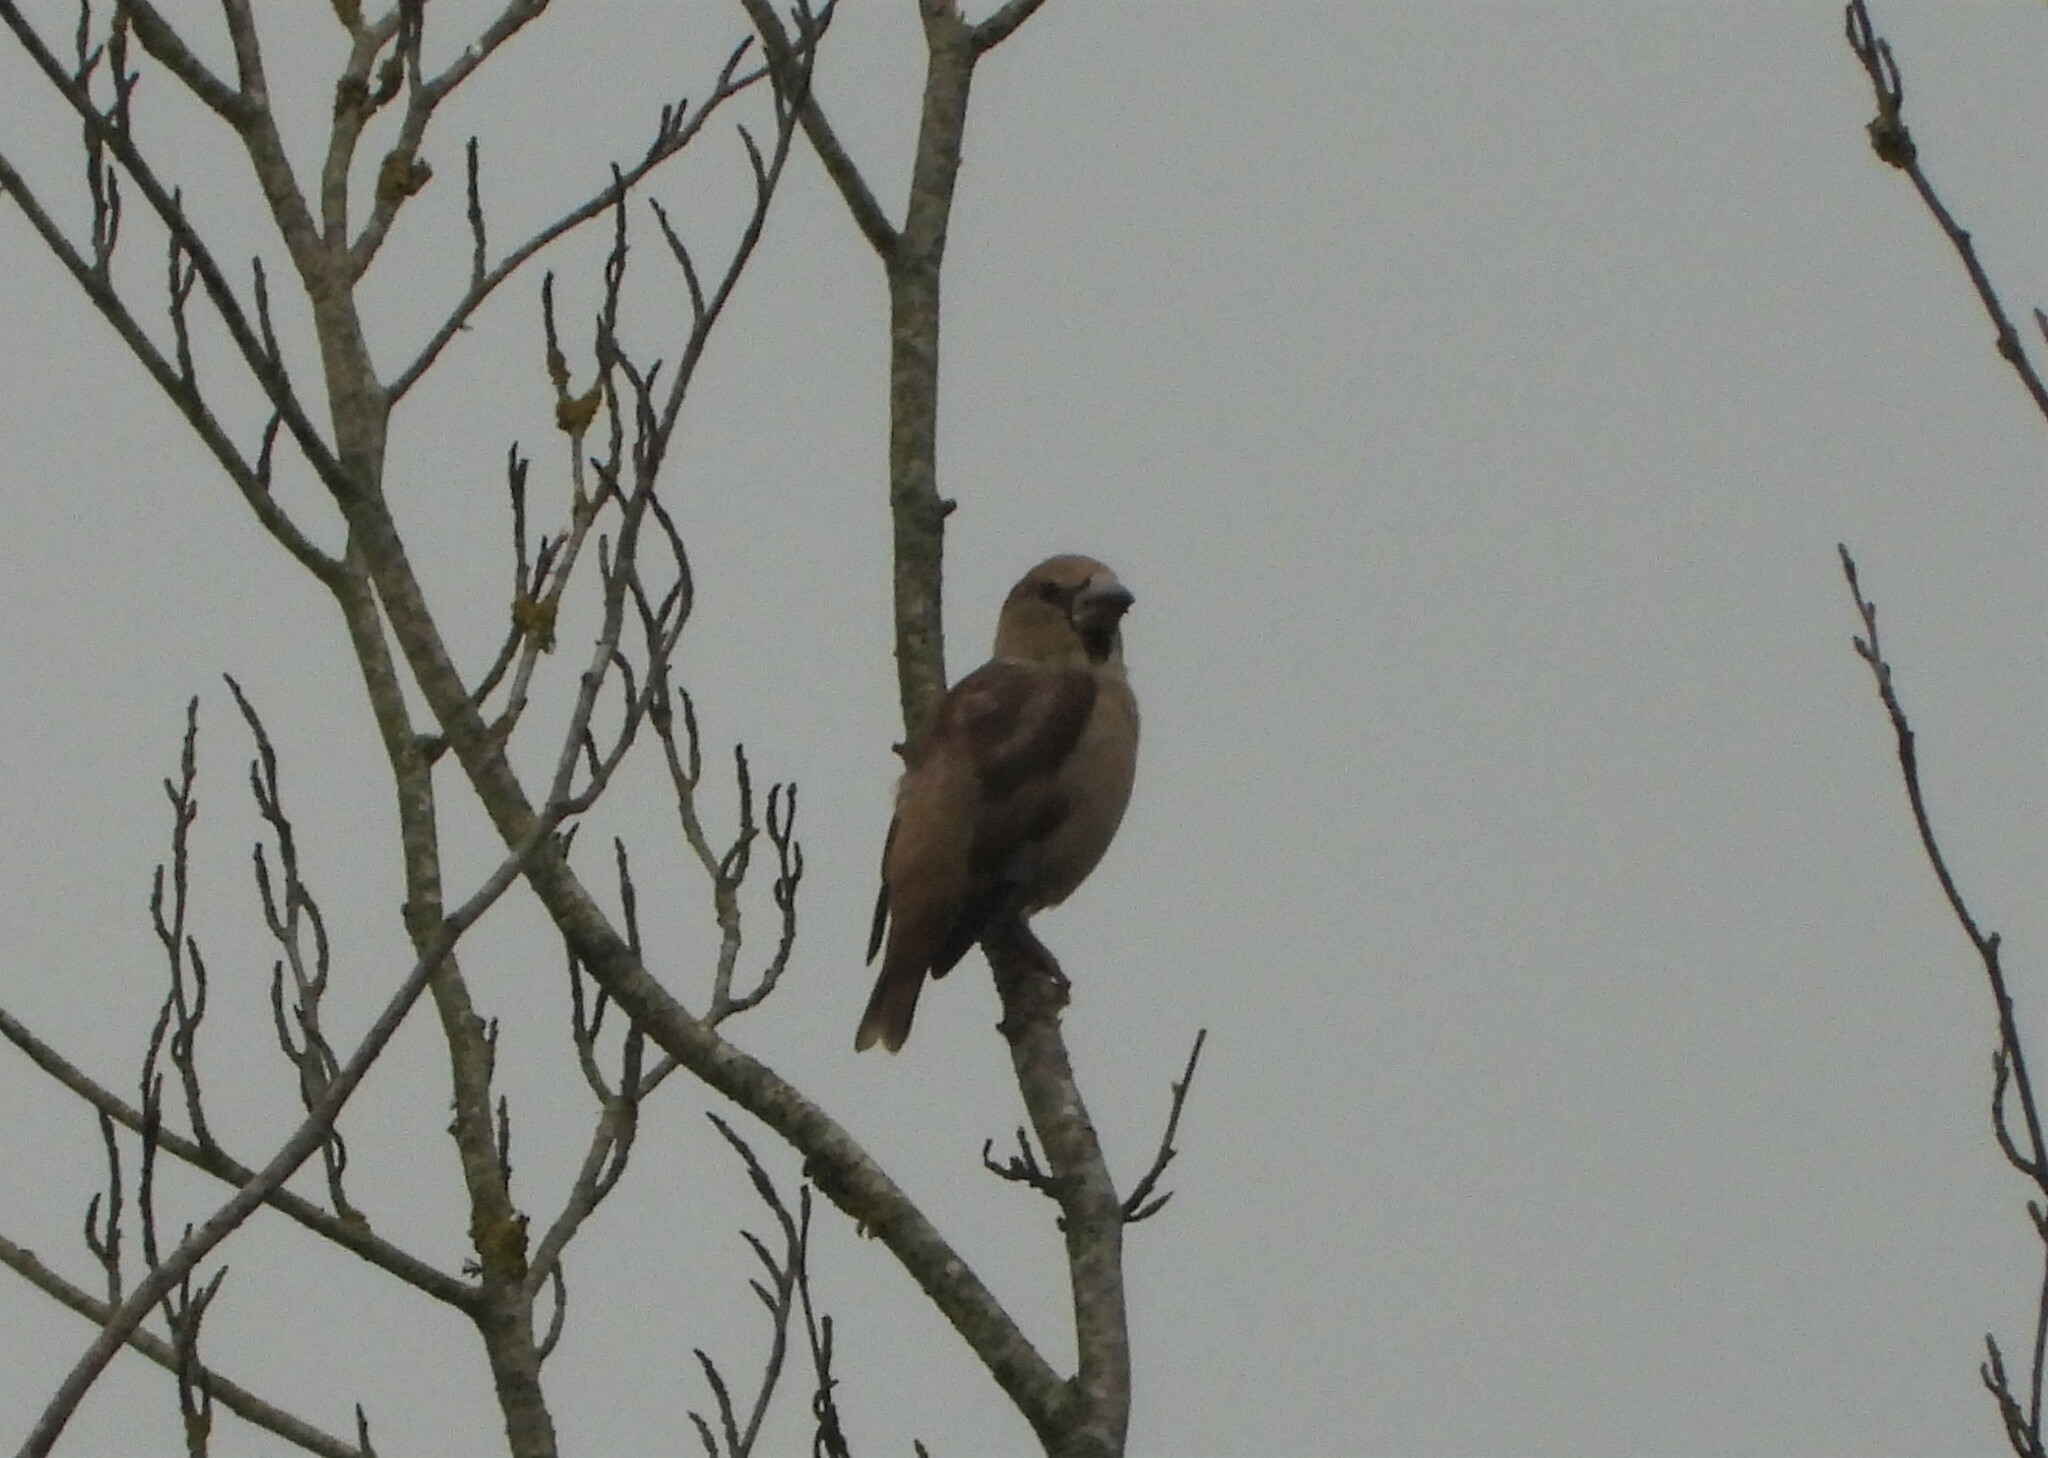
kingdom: Animalia
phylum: Chordata
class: Aves
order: Passeriformes
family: Fringillidae
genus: Coccothraustes
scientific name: Coccothraustes coccothraustes
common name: Hawfinch
